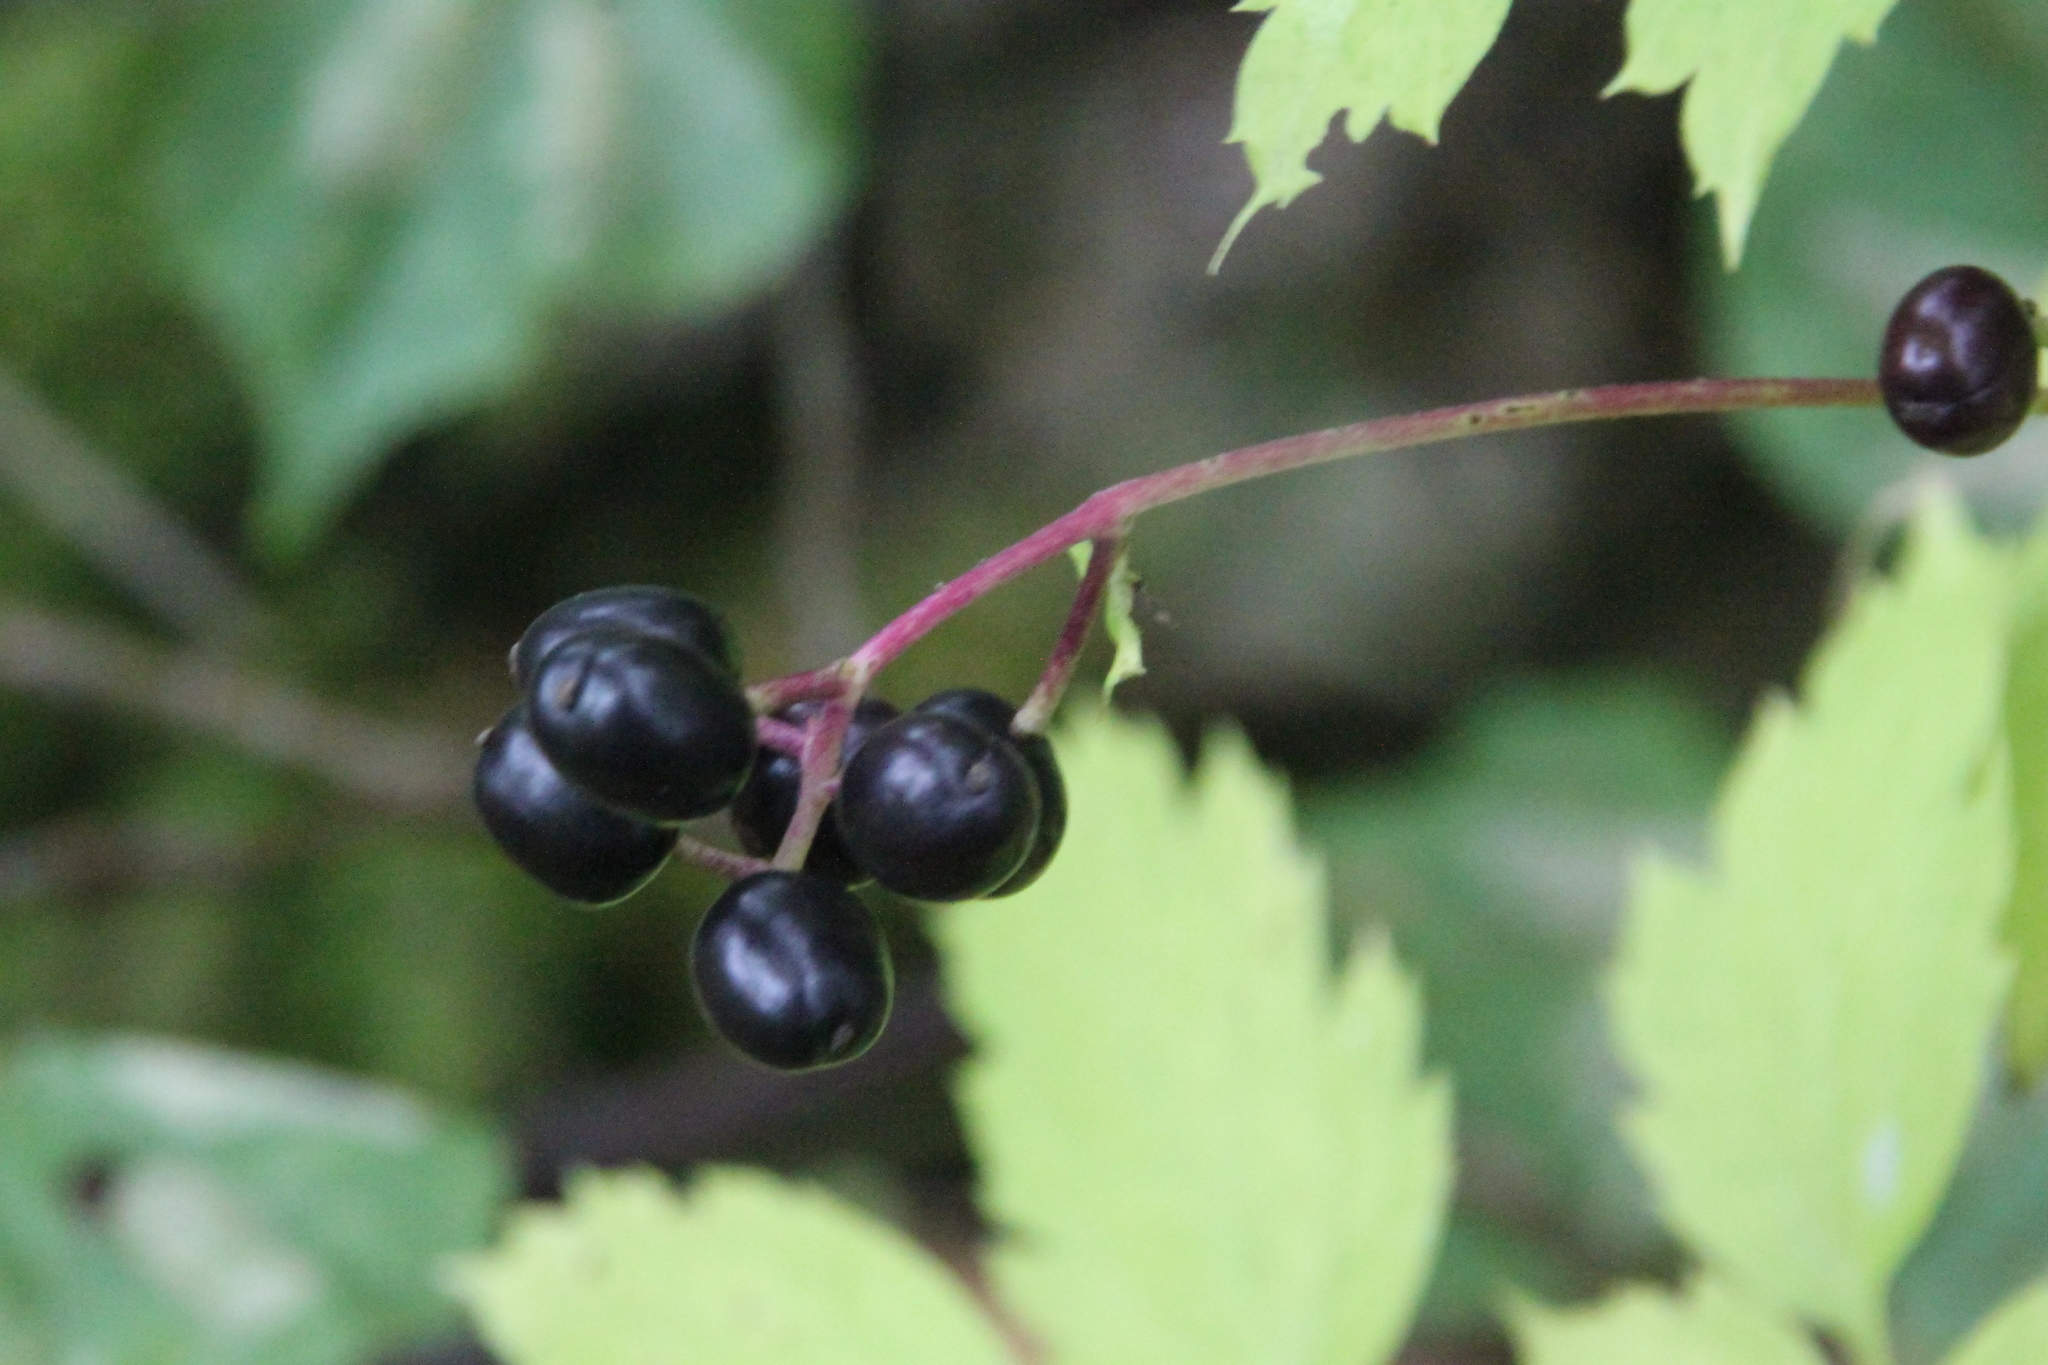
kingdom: Plantae
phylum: Tracheophyta
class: Magnoliopsida
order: Ranunculales
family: Ranunculaceae
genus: Actaea
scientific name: Actaea spicata
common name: Baneberry
